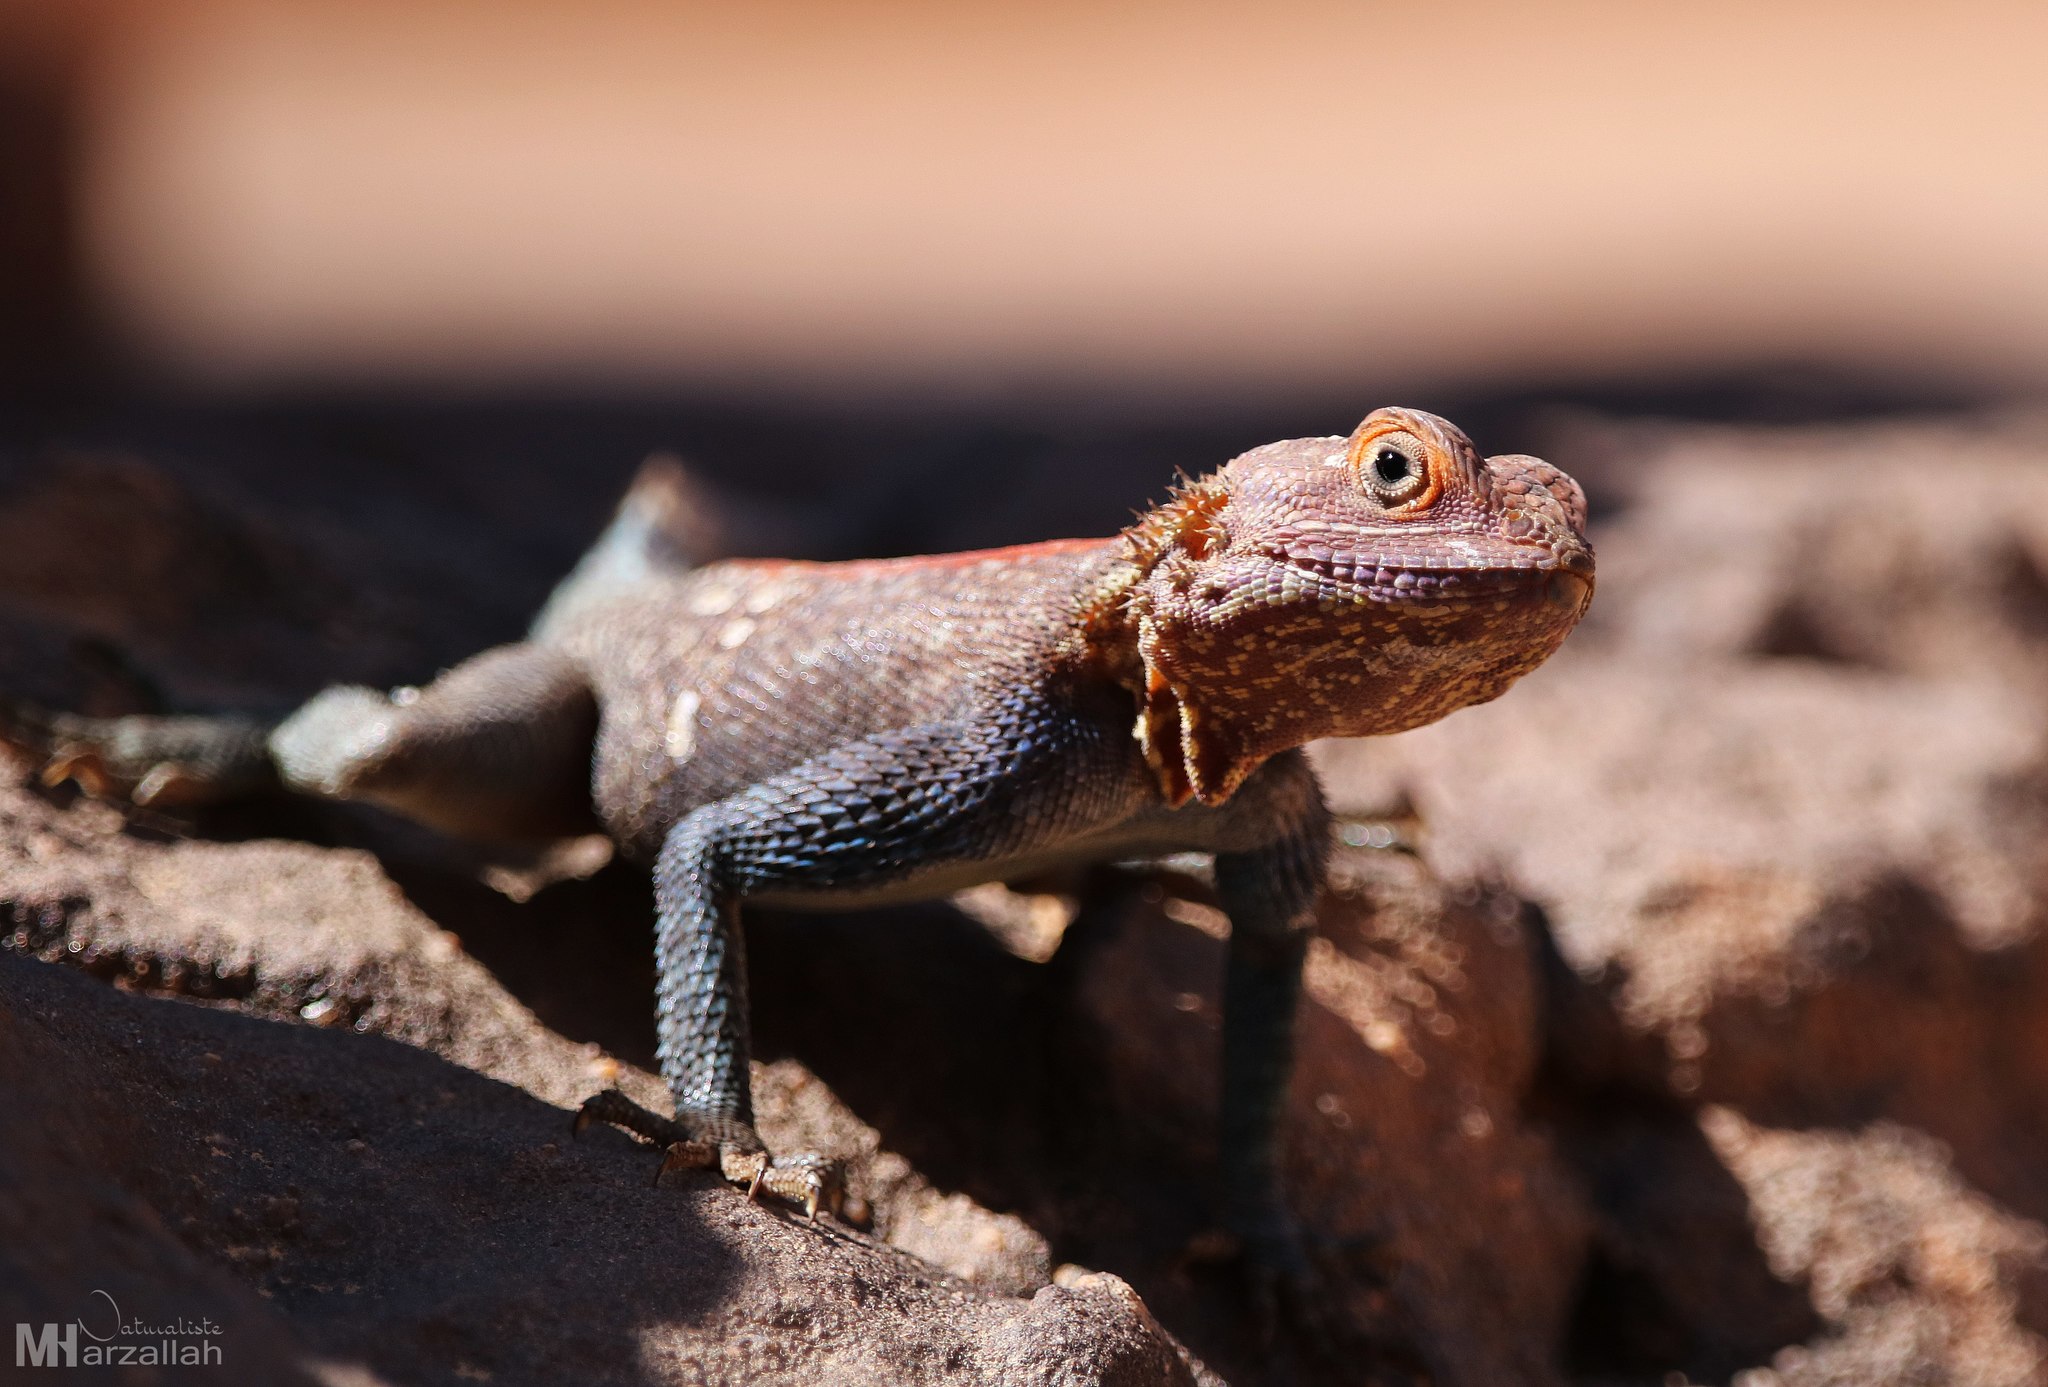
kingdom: Animalia
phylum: Chordata
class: Squamata
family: Agamidae
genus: Agama
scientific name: Agama tassiliensis
